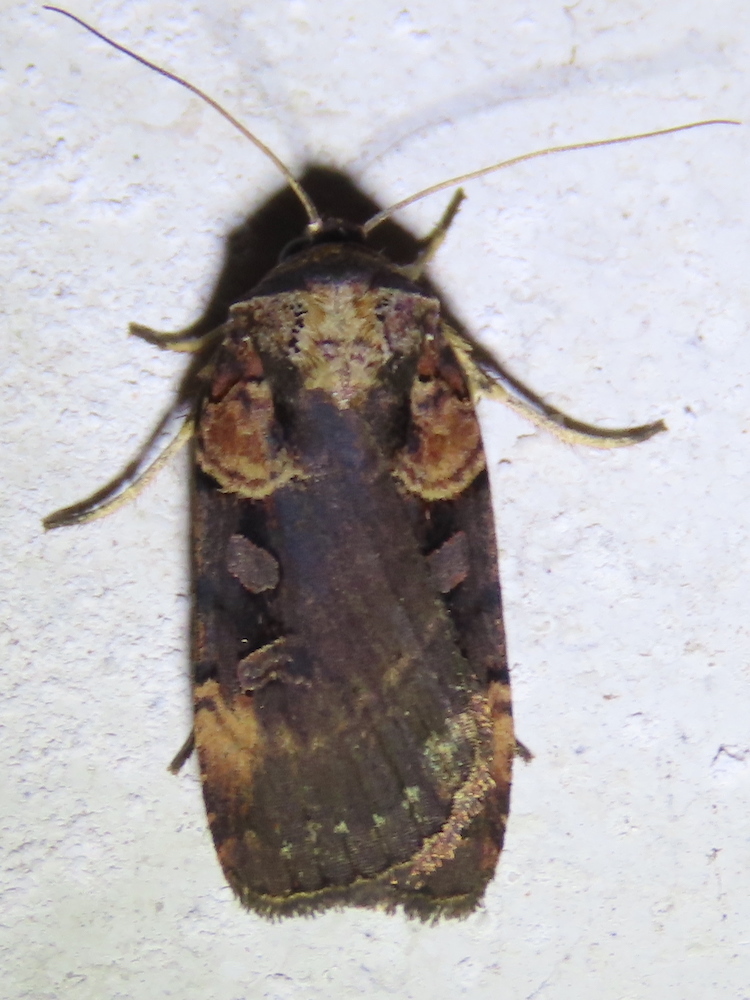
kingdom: Animalia
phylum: Arthropoda
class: Insecta
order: Lepidoptera
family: Noctuidae
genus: Pseudohermonassa
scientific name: Pseudohermonassa bicarnea
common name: Pink spotted dart
